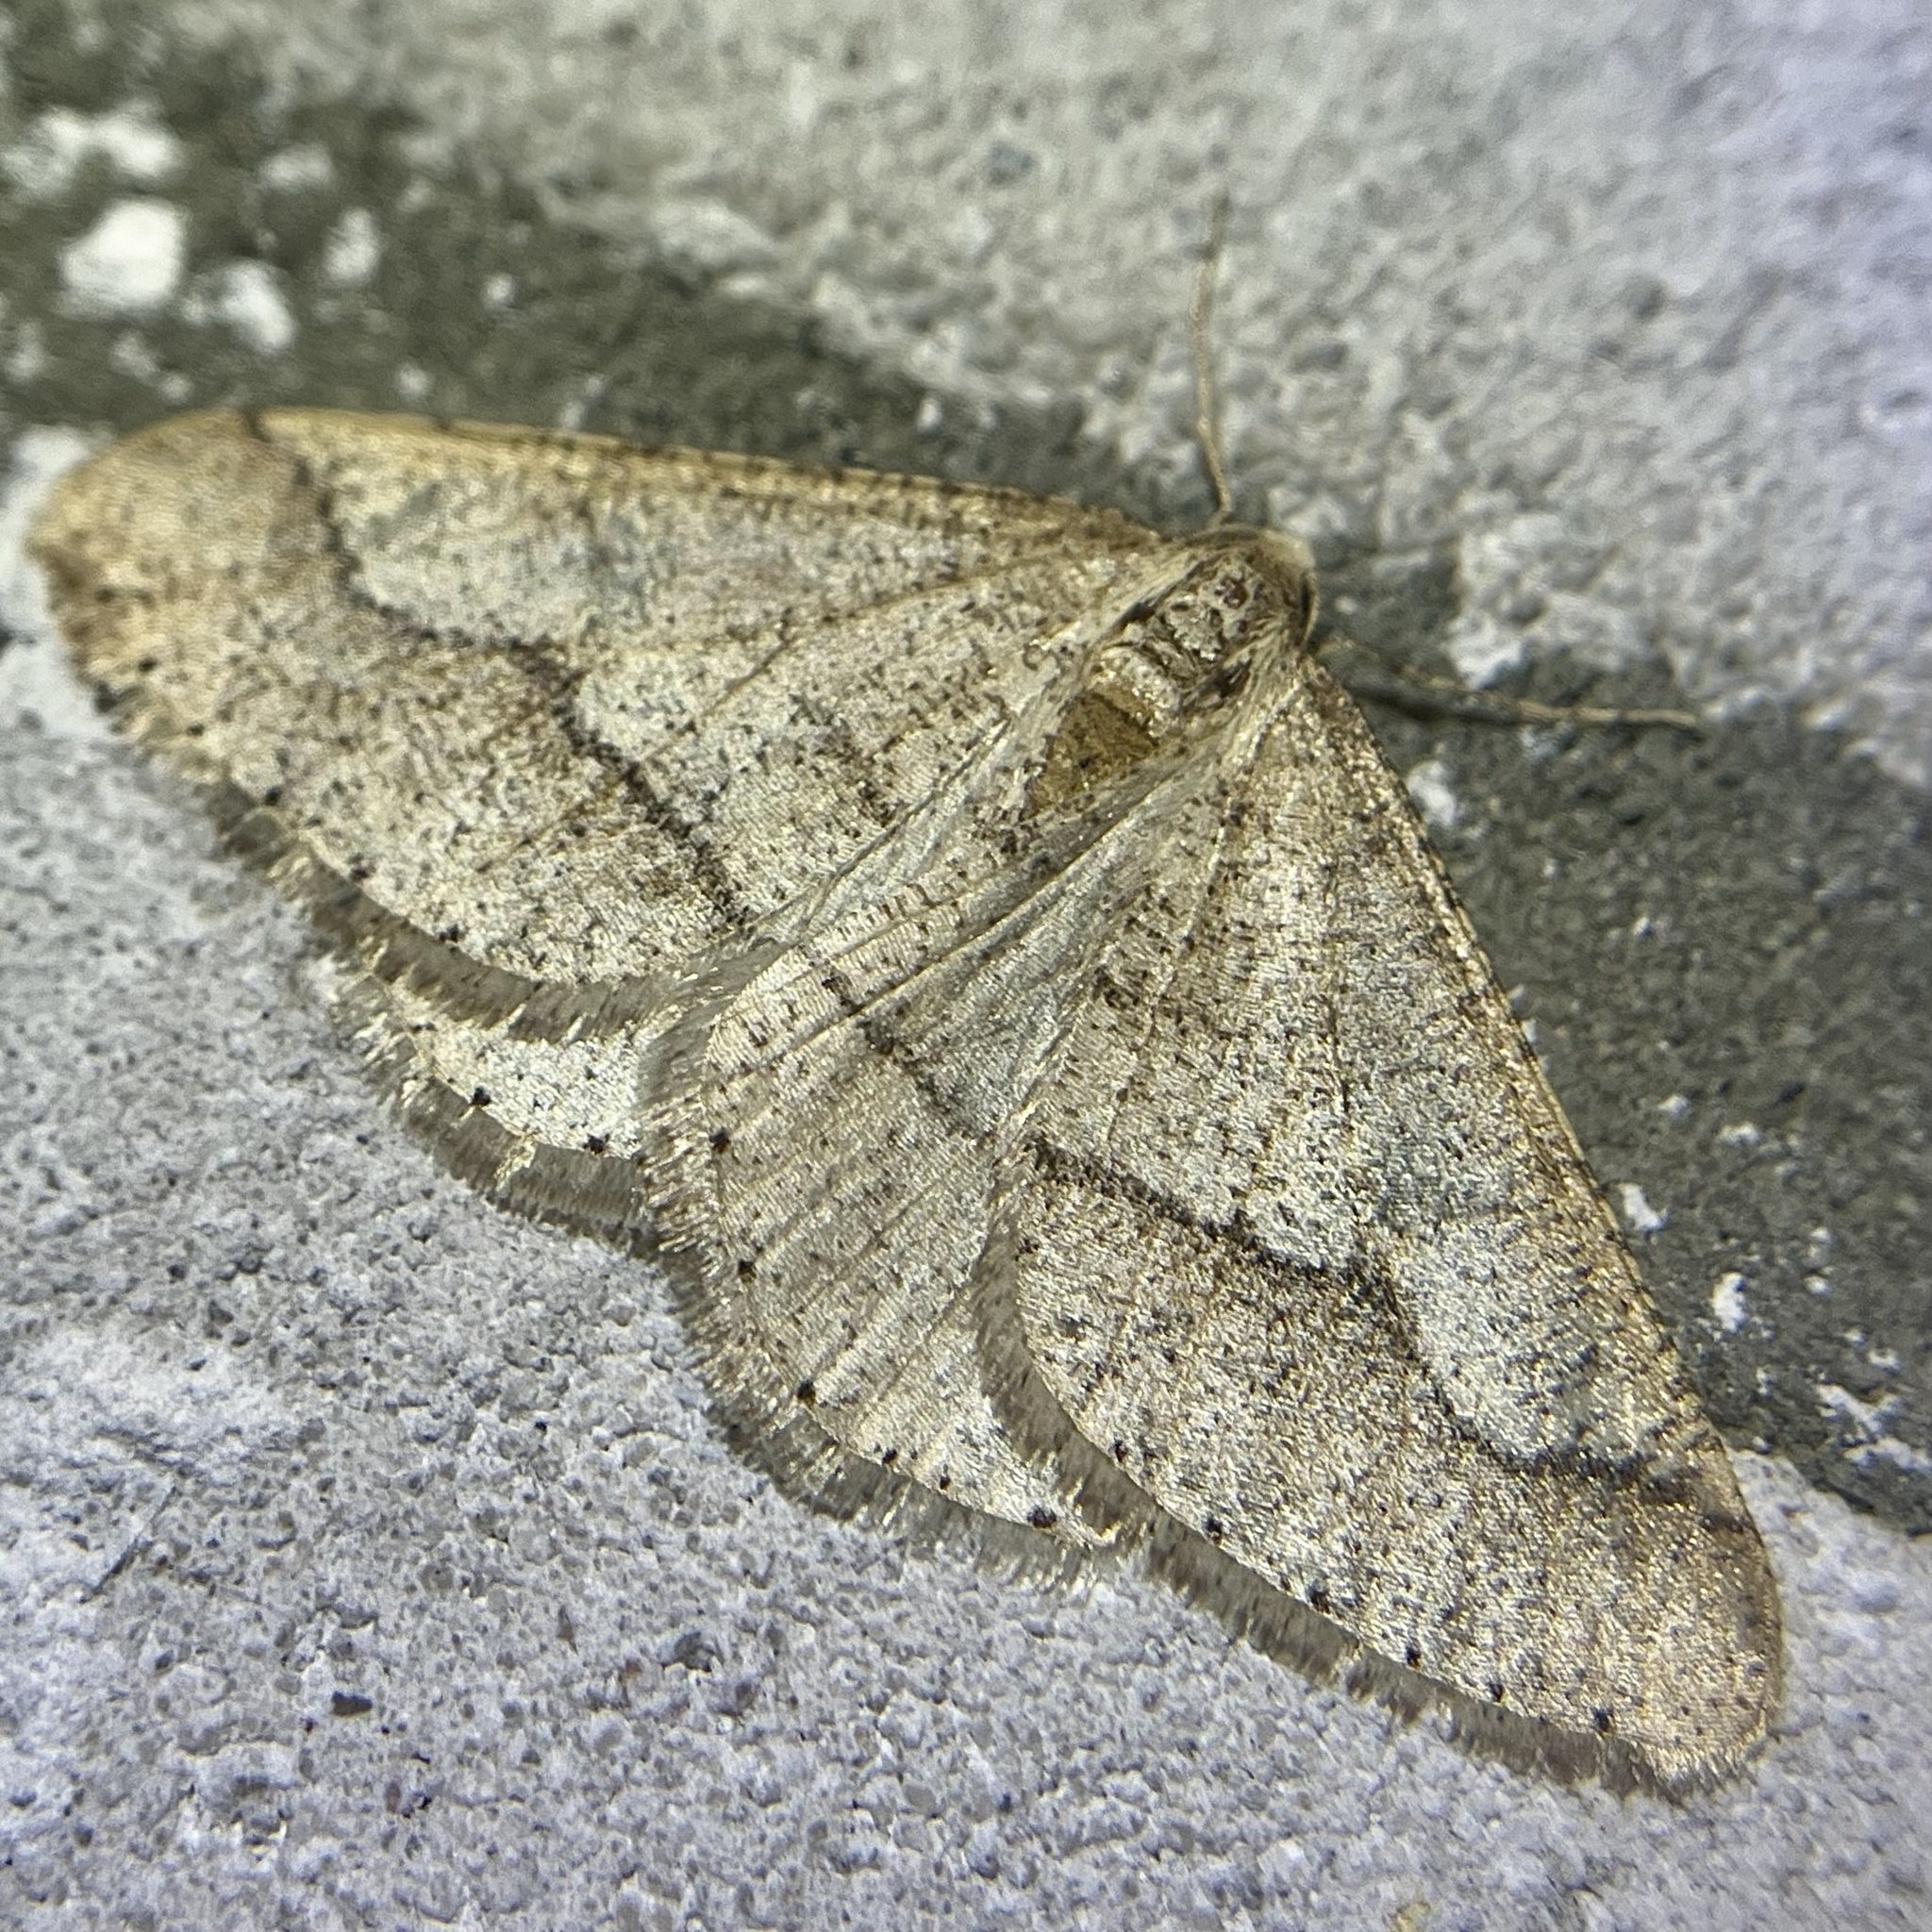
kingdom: Animalia
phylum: Arthropoda
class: Insecta
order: Lepidoptera
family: Geometridae
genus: Agriopis
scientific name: Agriopis marginaria
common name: Dotted border
